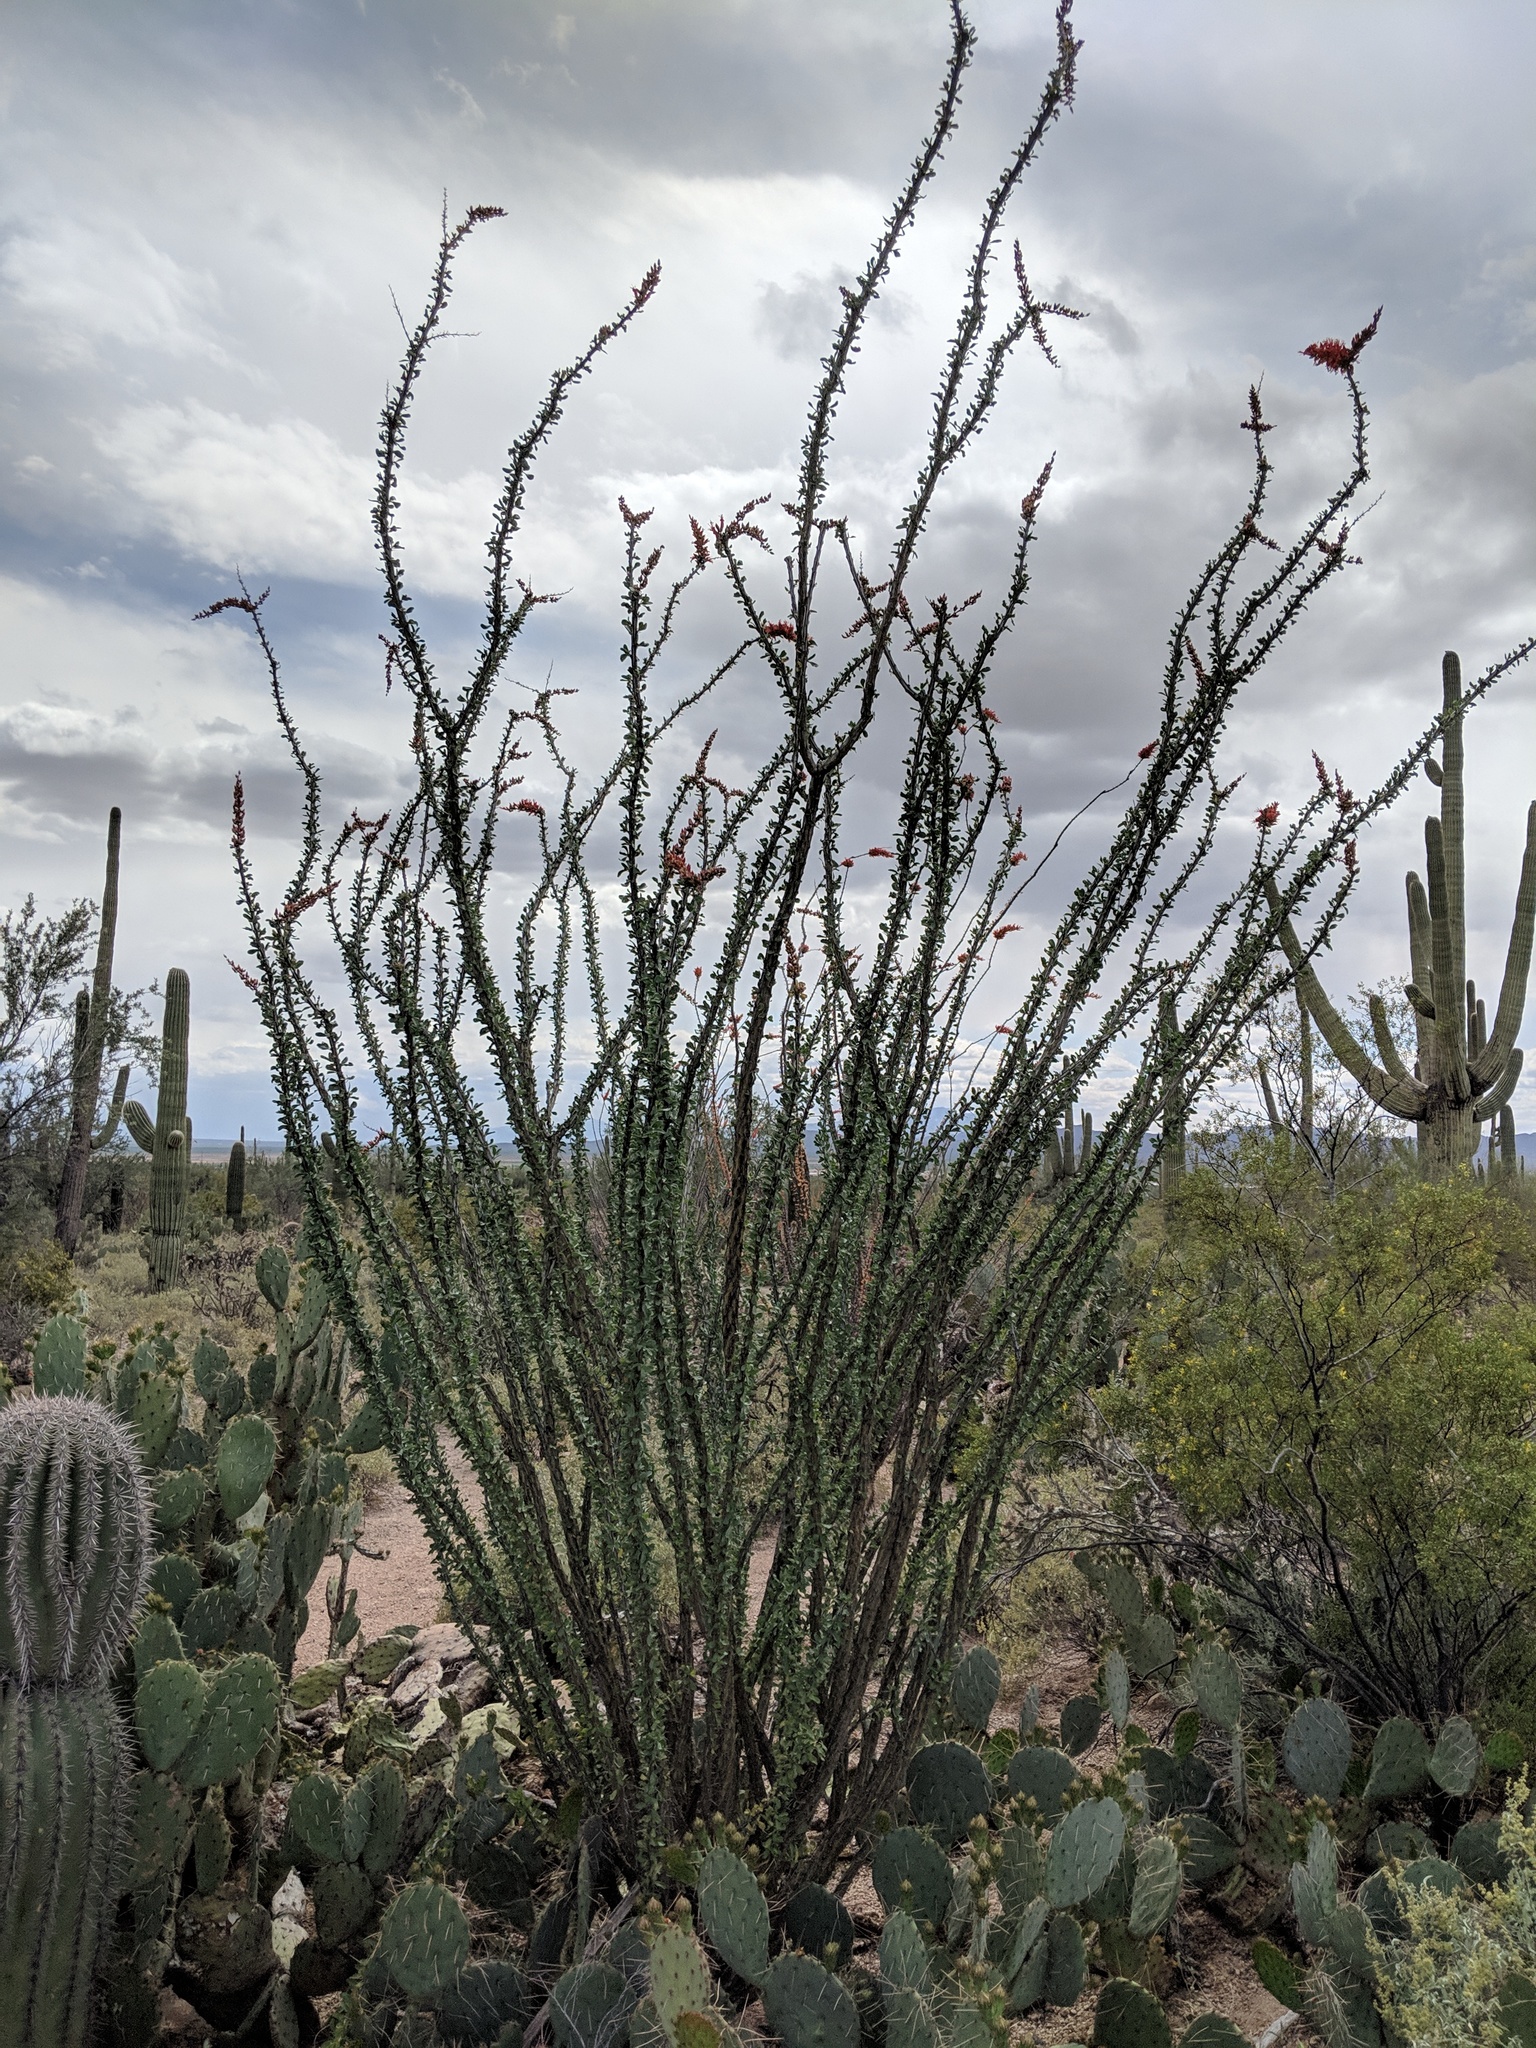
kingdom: Plantae
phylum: Tracheophyta
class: Magnoliopsida
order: Ericales
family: Fouquieriaceae
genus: Fouquieria
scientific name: Fouquieria splendens
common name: Vine-cactus
